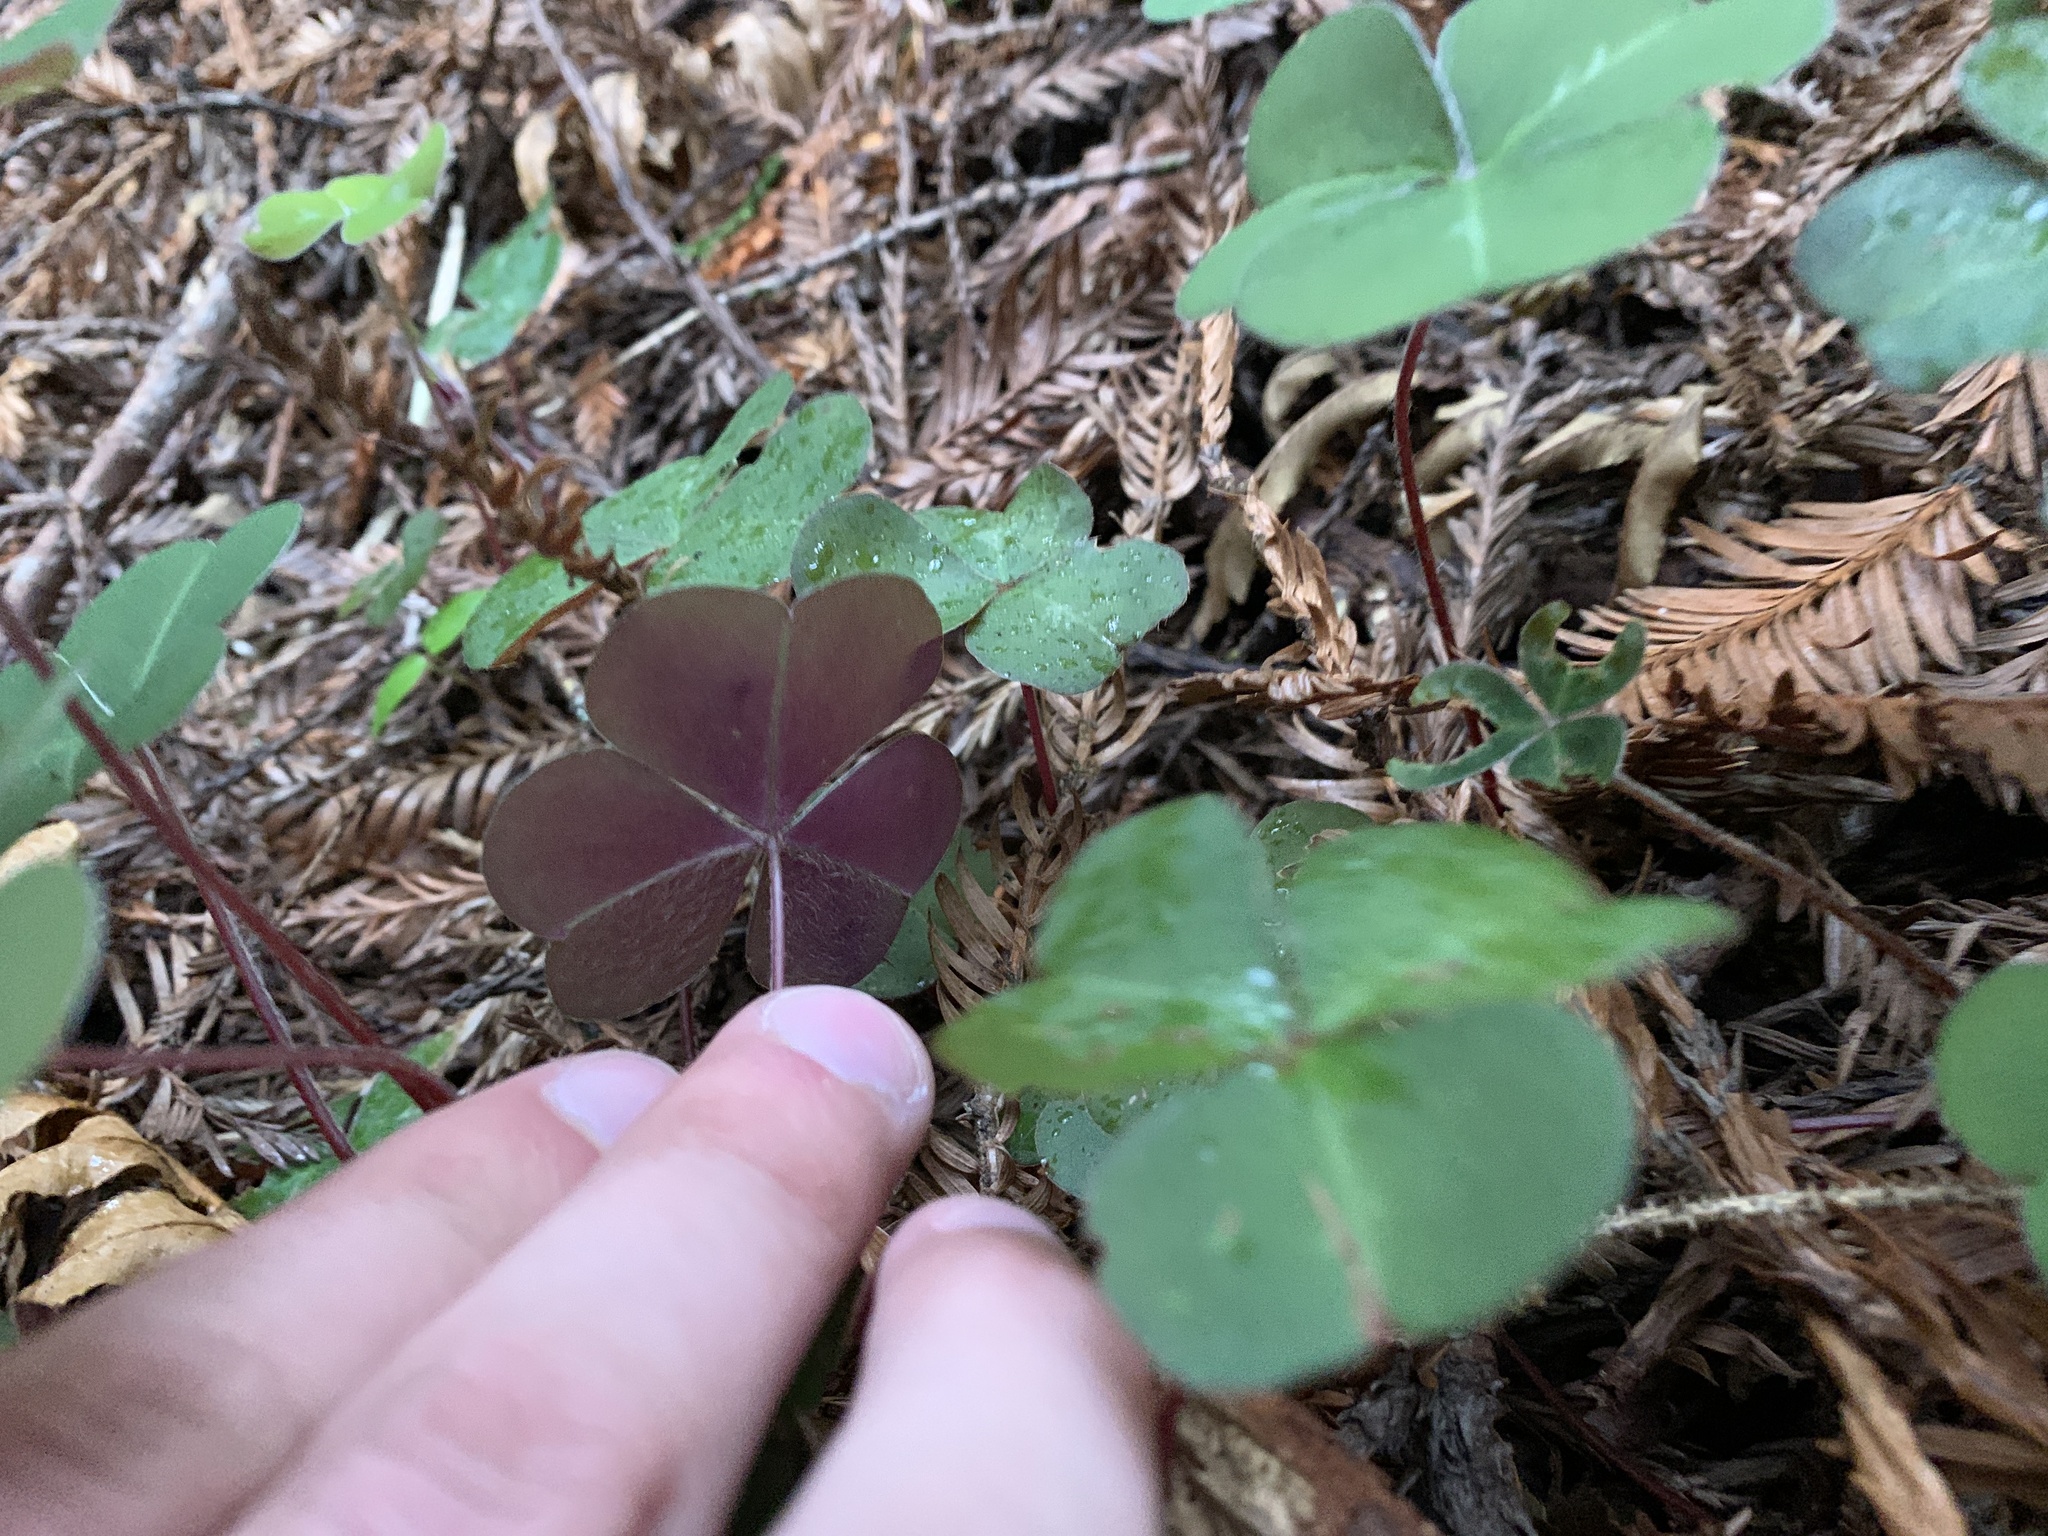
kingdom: Plantae
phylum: Tracheophyta
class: Magnoliopsida
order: Oxalidales
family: Oxalidaceae
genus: Oxalis
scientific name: Oxalis oregana
